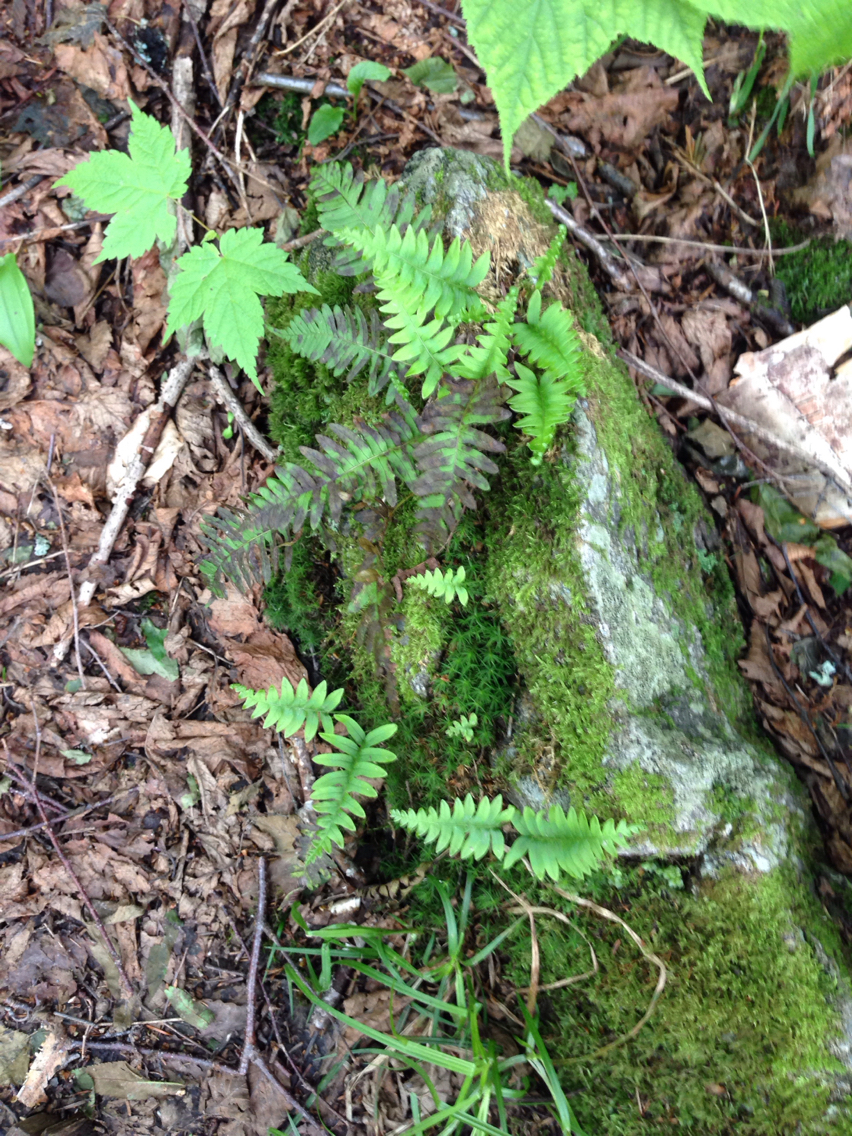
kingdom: Plantae
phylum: Tracheophyta
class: Polypodiopsida
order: Polypodiales
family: Polypodiaceae
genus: Polypodium
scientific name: Polypodium virginianum
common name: American wall fern
